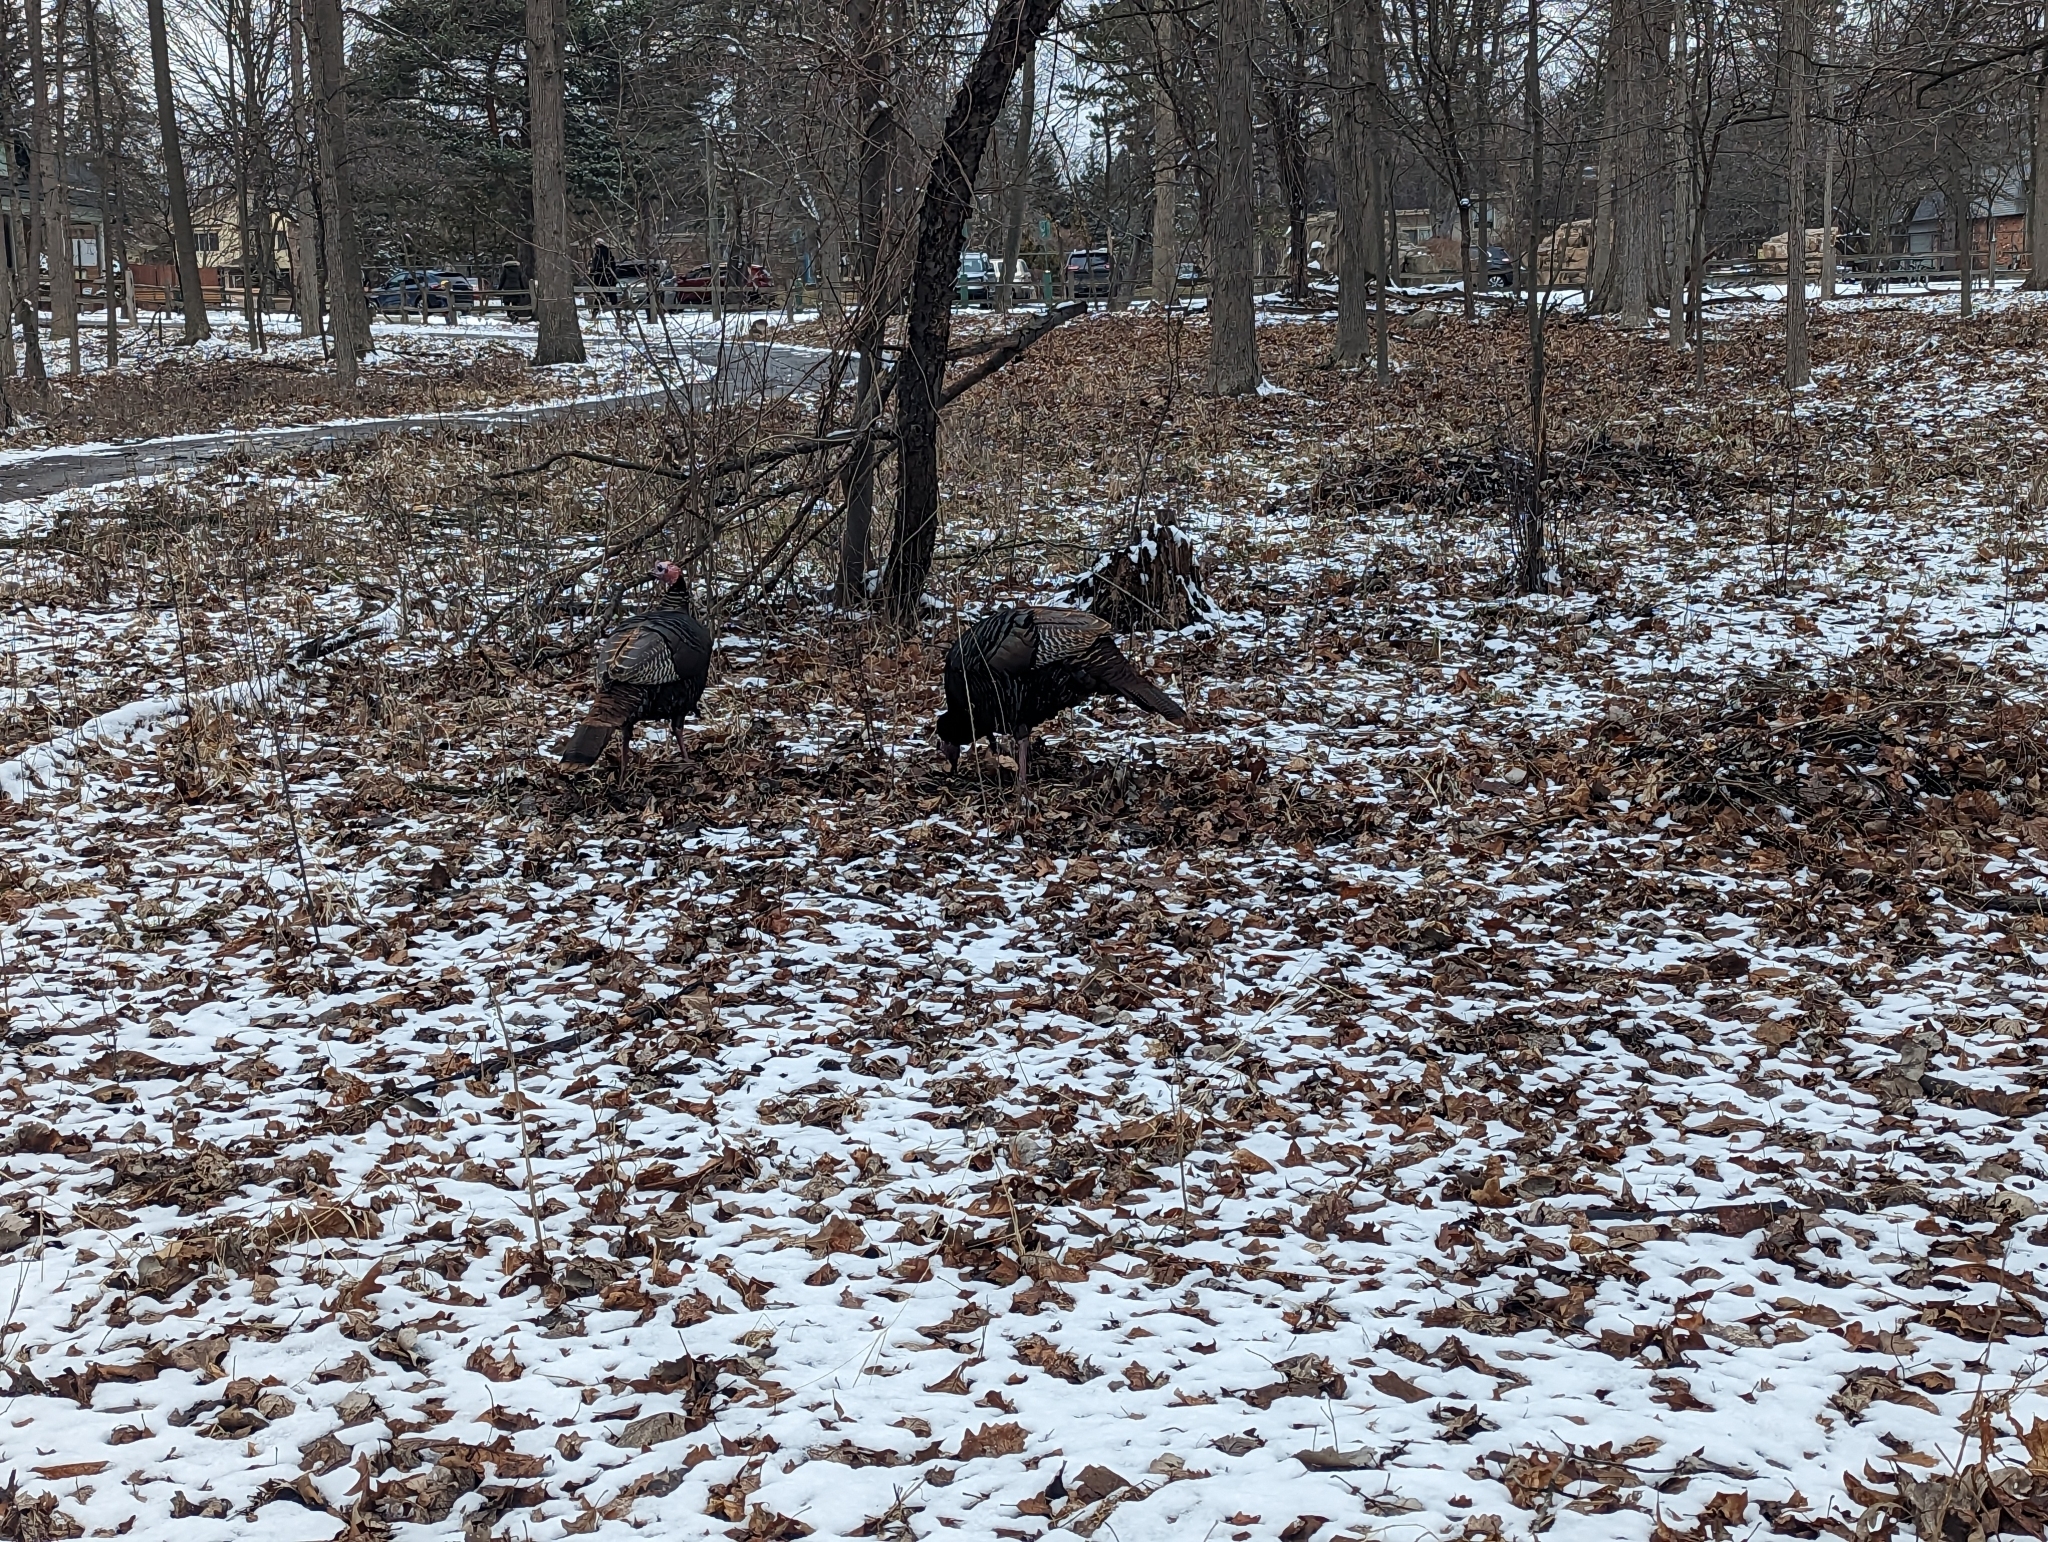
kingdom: Animalia
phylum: Chordata
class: Aves
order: Galliformes
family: Phasianidae
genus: Meleagris
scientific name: Meleagris gallopavo
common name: Wild turkey
